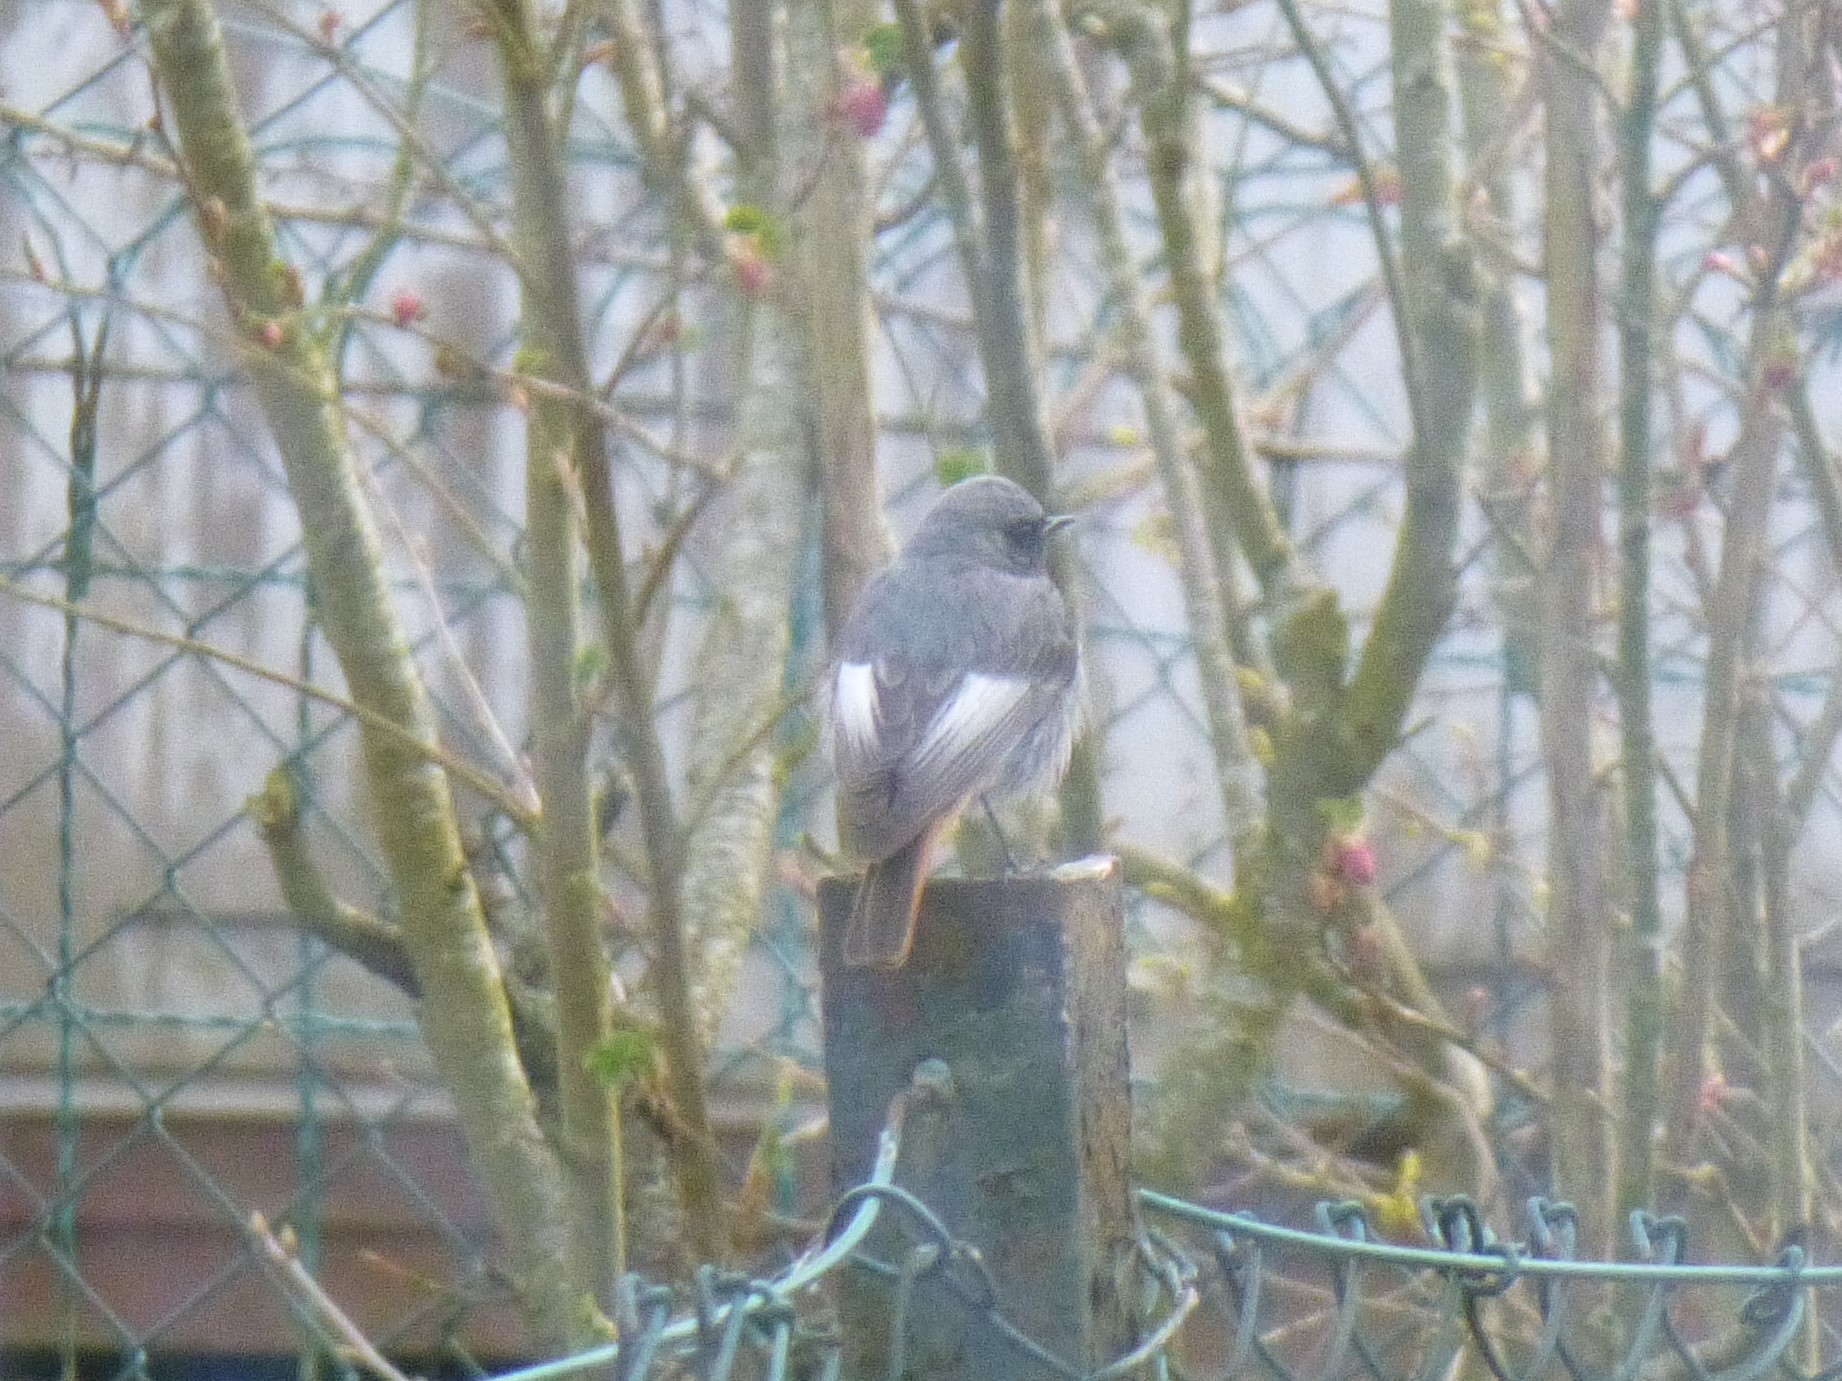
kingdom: Animalia
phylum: Chordata
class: Aves
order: Passeriformes
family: Muscicapidae
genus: Phoenicurus
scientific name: Phoenicurus ochruros
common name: Black redstart
